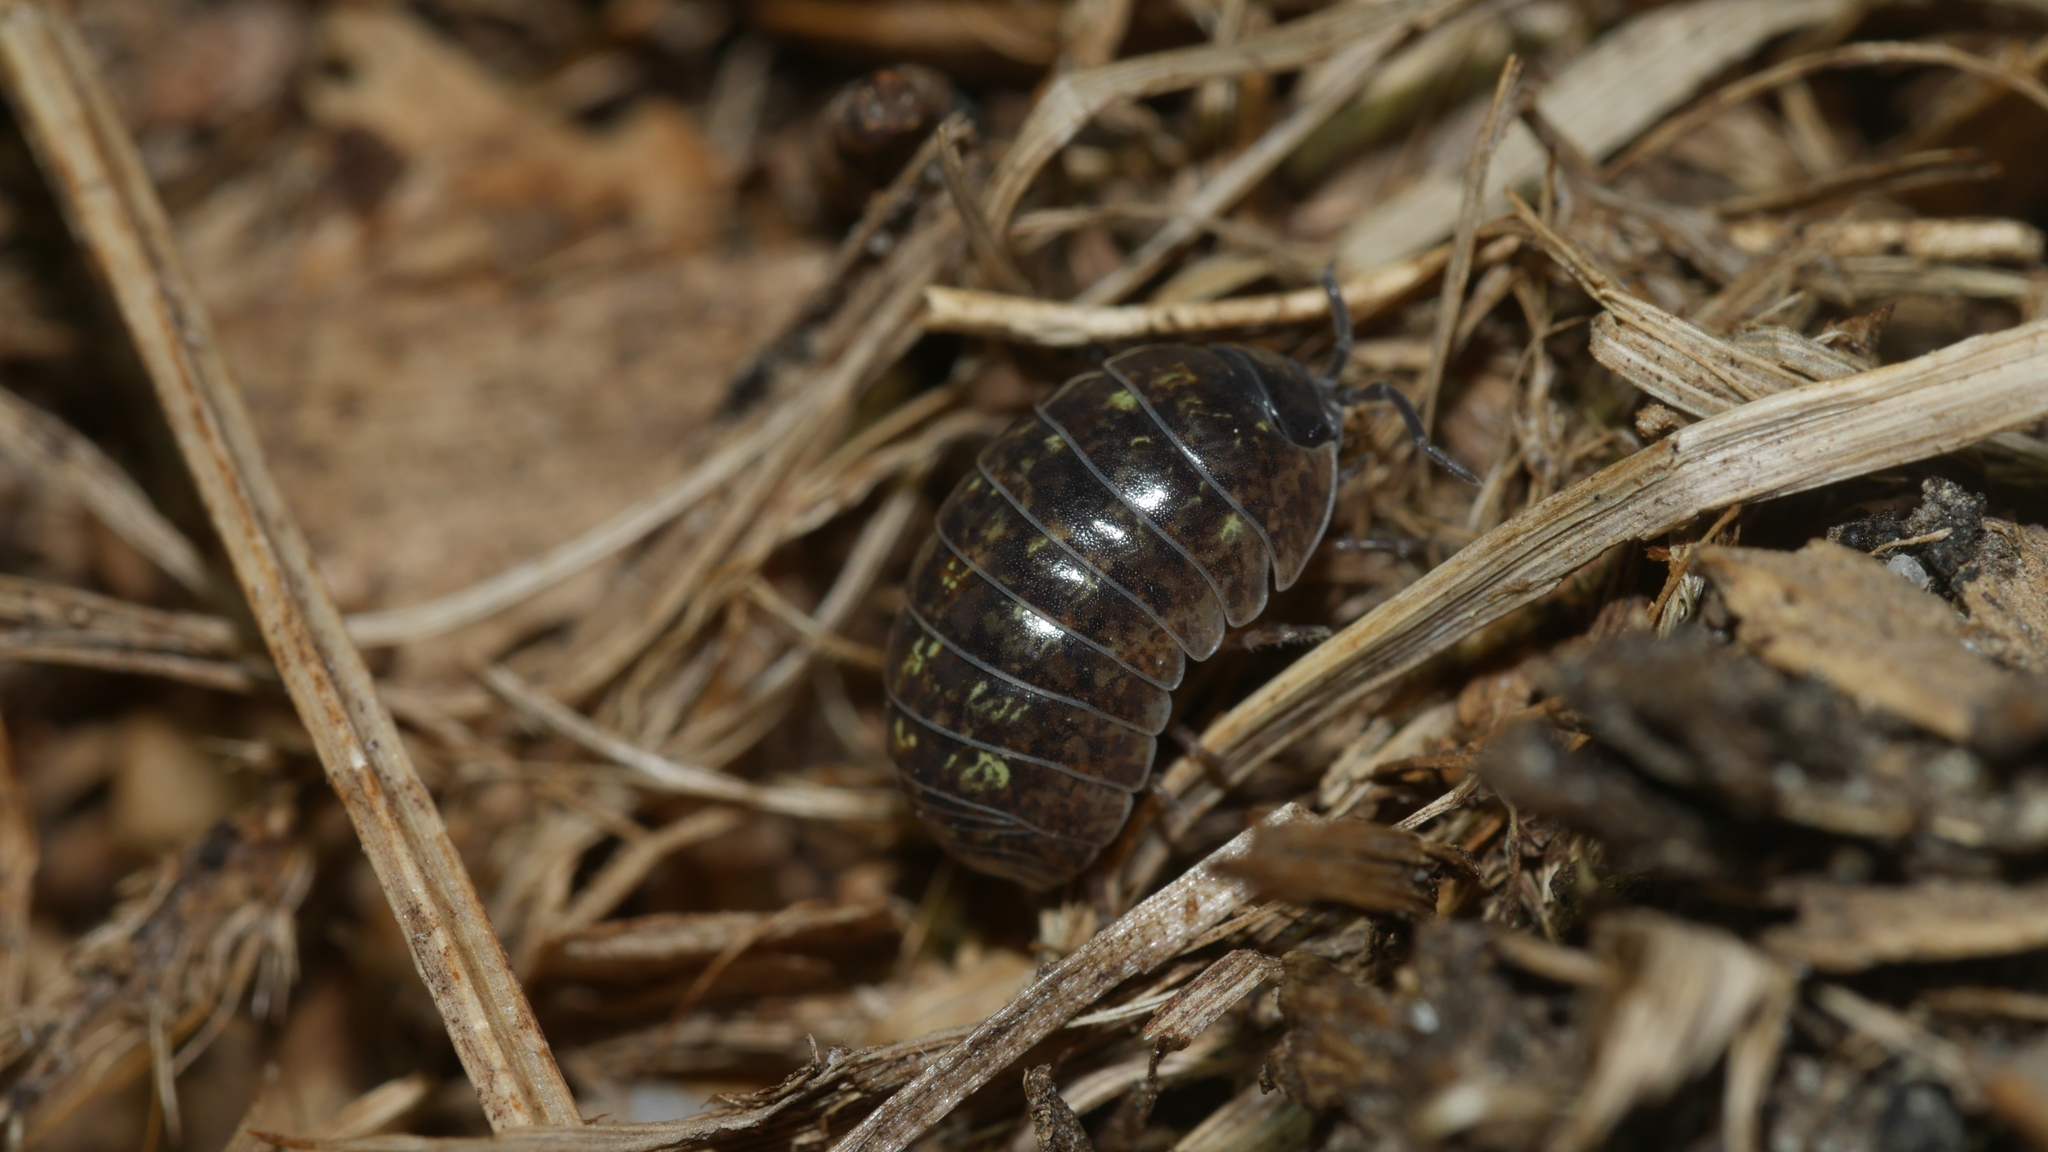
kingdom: Animalia
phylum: Arthropoda
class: Malacostraca
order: Isopoda
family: Armadillidiidae
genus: Armadillidium
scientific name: Armadillidium vulgare
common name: Common pill woodlouse
